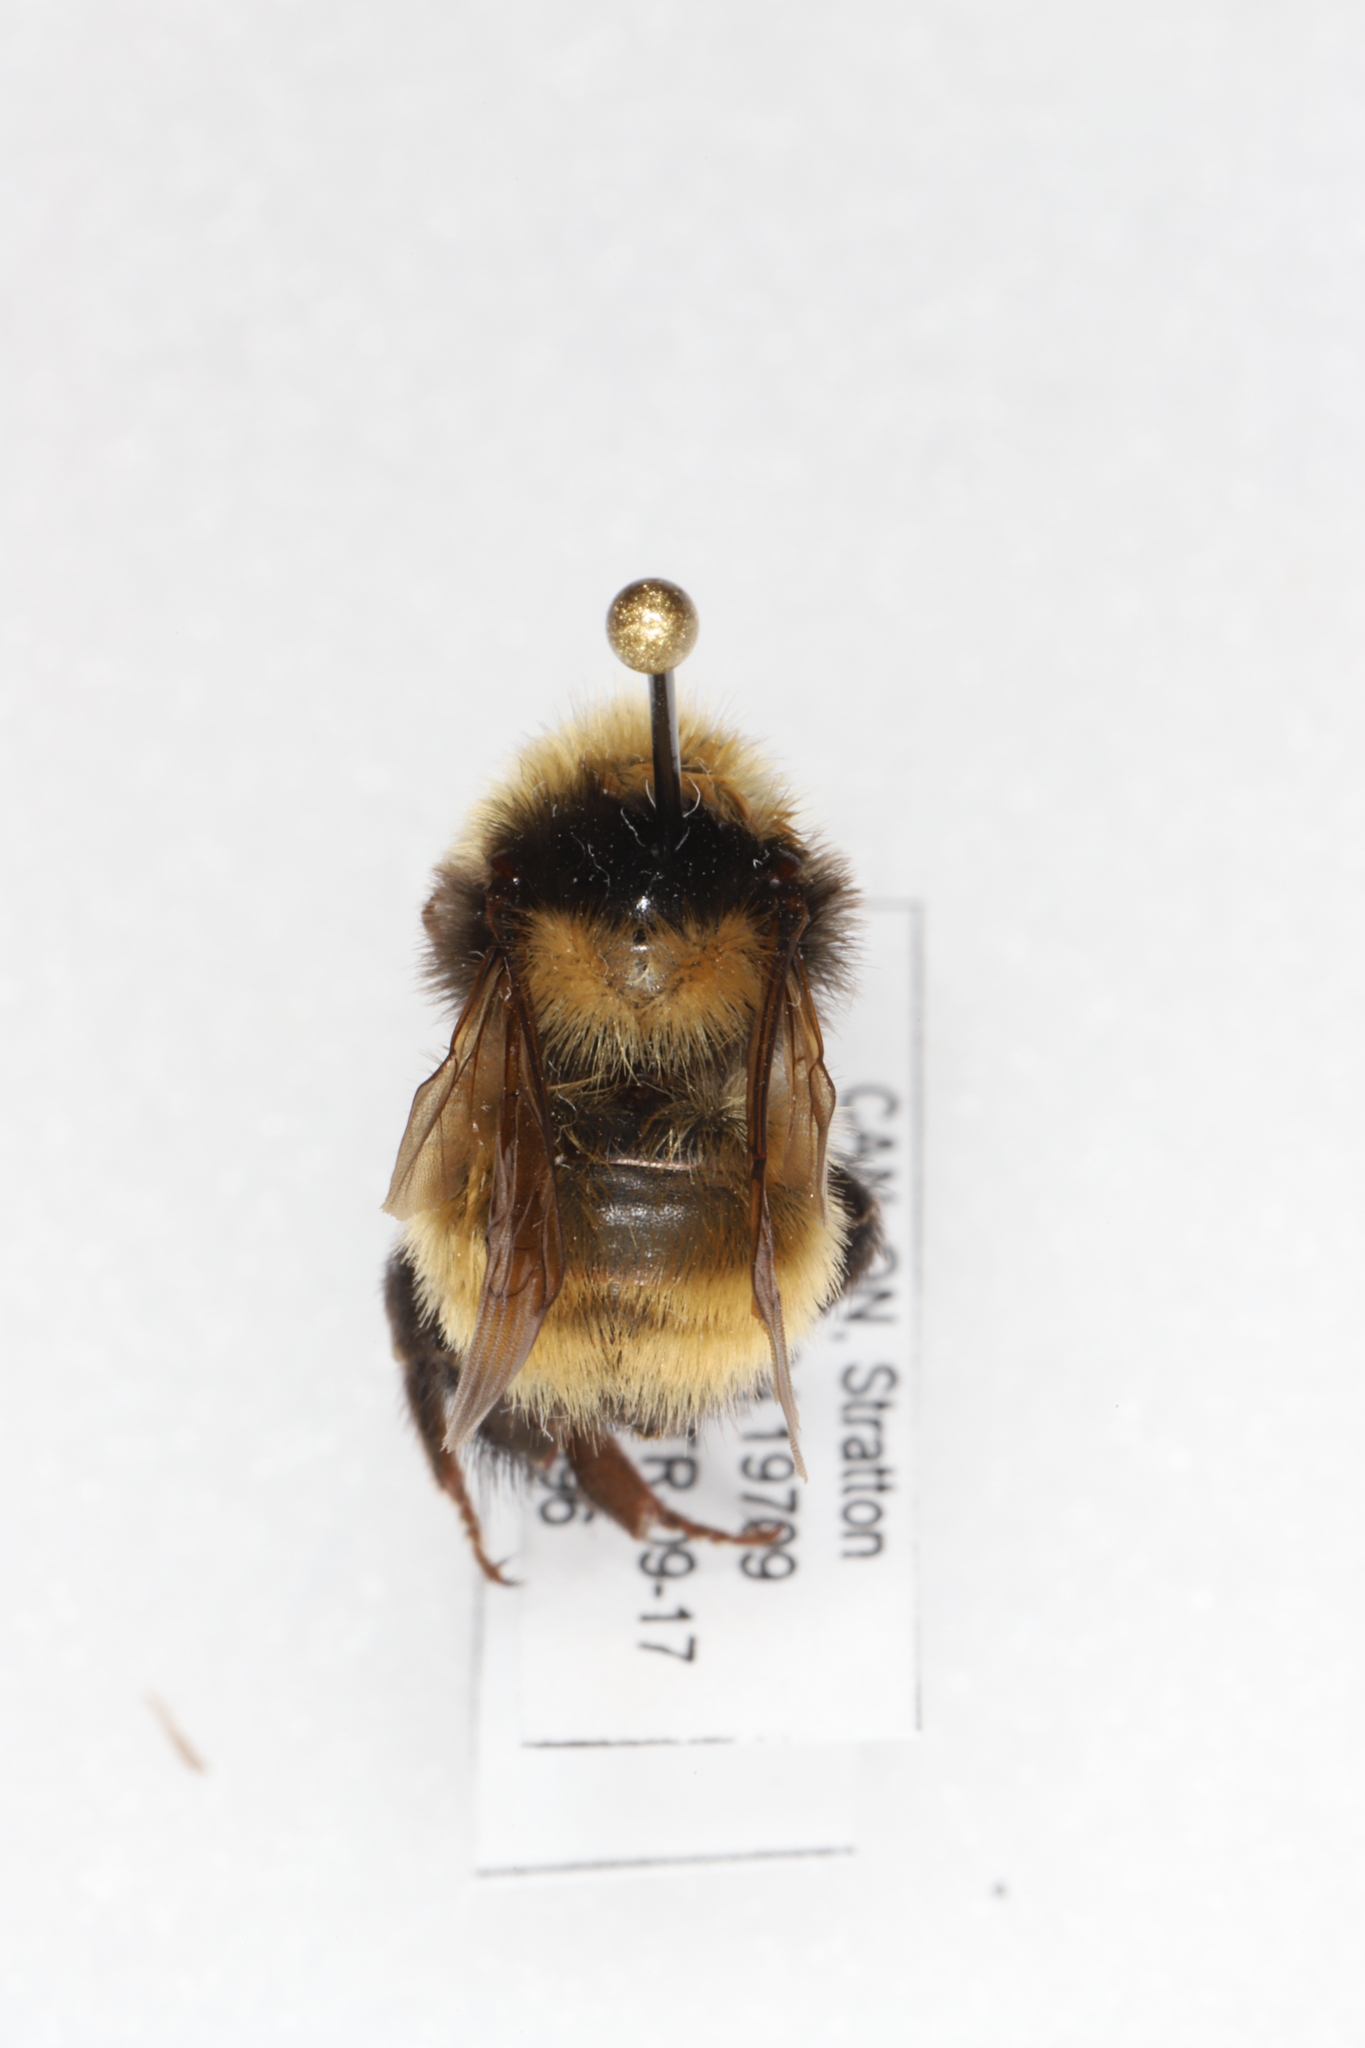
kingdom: Animalia
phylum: Arthropoda
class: Insecta
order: Hymenoptera
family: Apidae
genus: Bombus
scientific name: Bombus borealis
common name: Northern amber bumble bee
